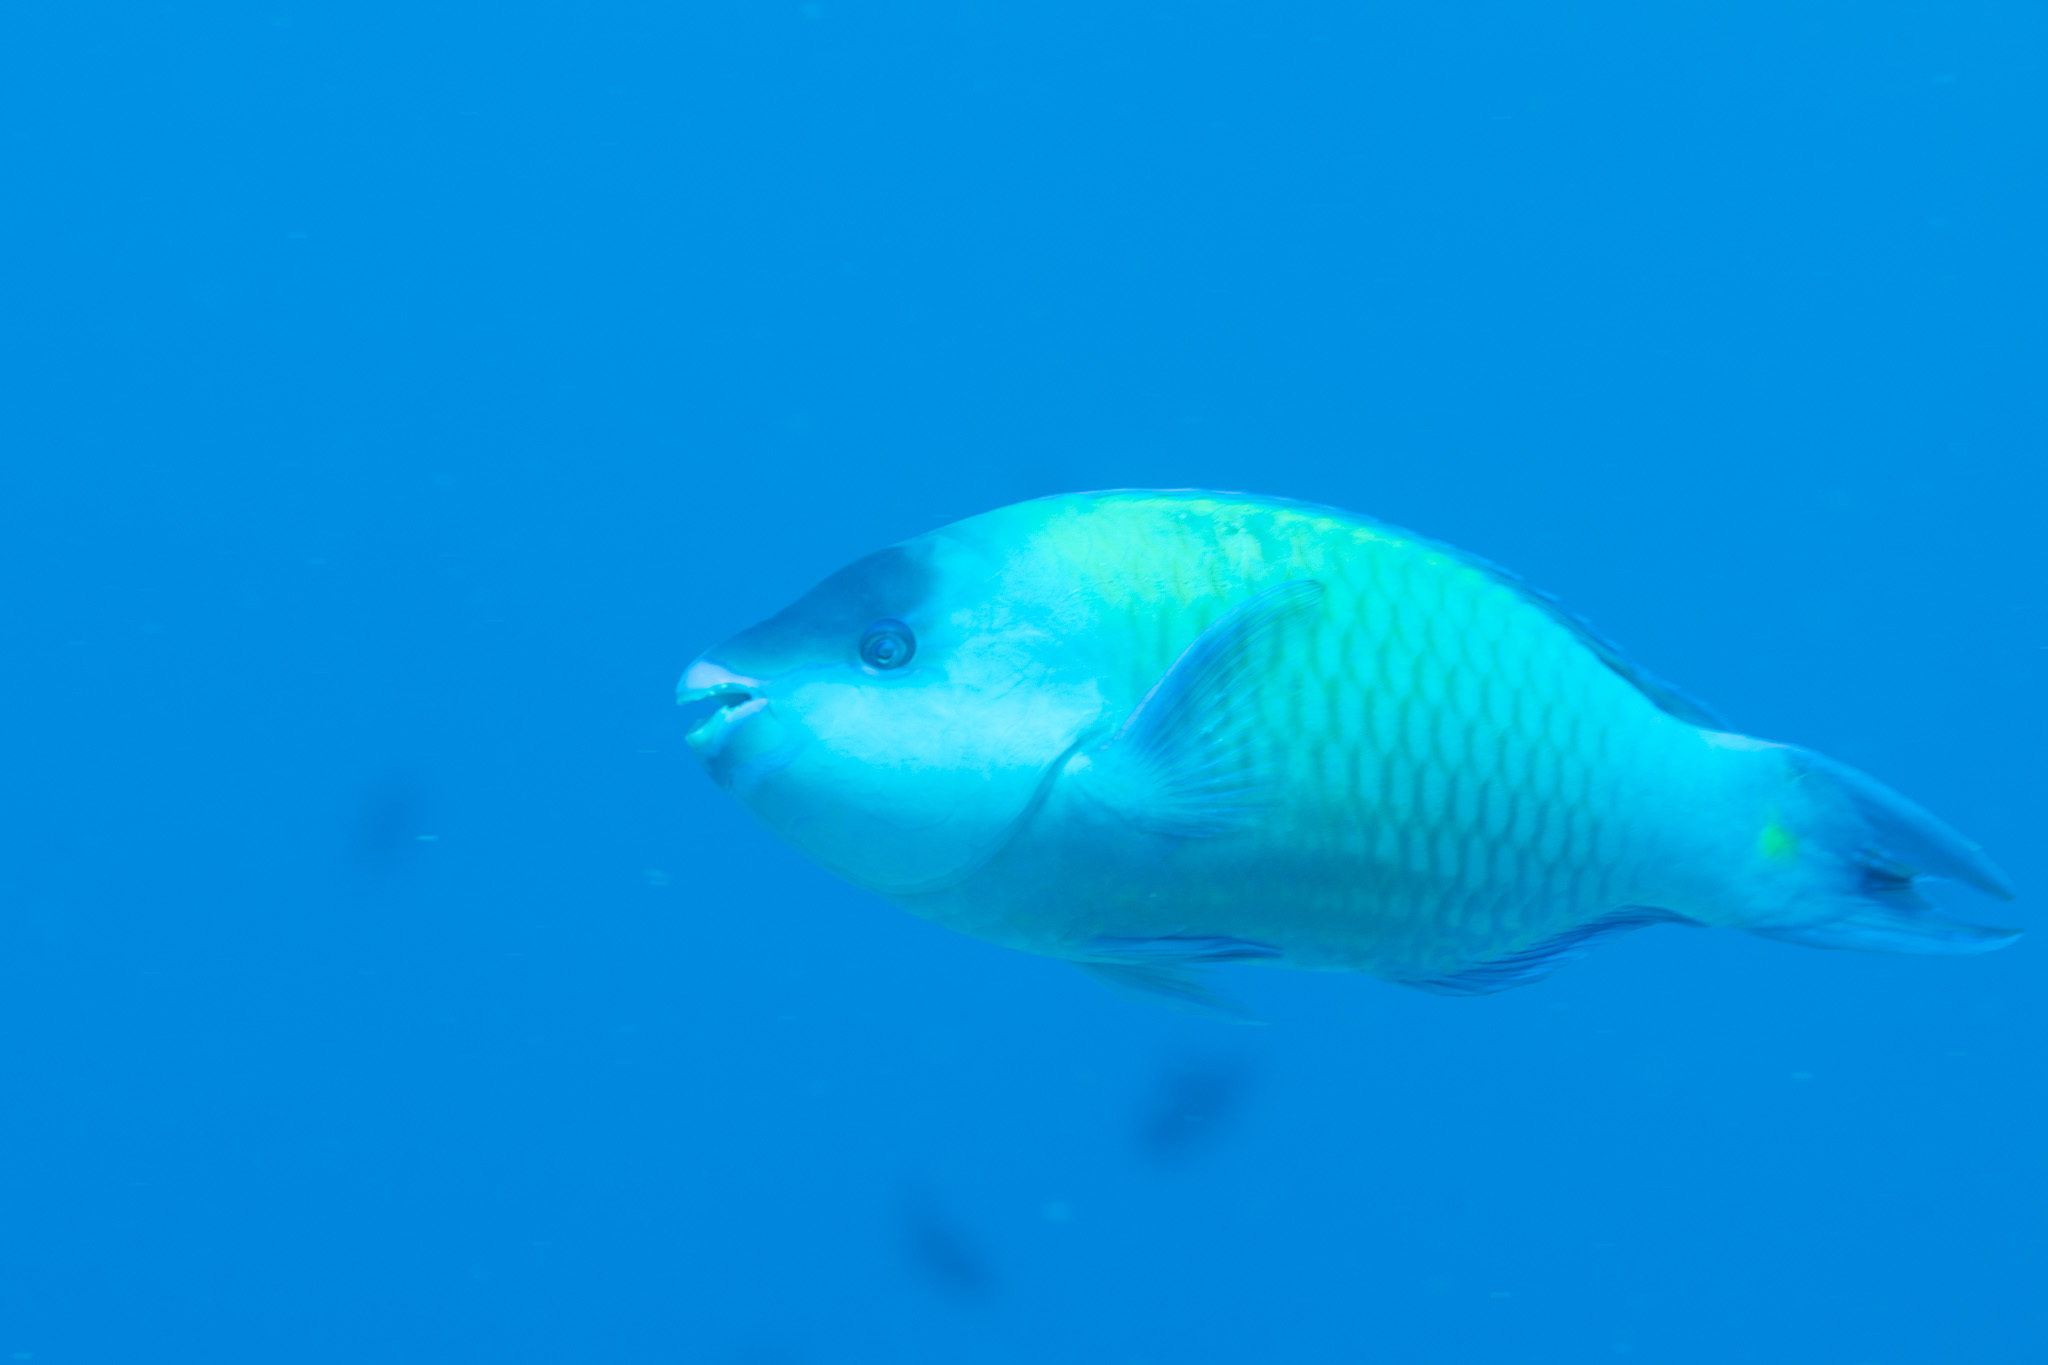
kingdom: Animalia
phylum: Chordata
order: Perciformes
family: Scaridae
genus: Scarus
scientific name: Scarus psittacus
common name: Palenose parrotfish
